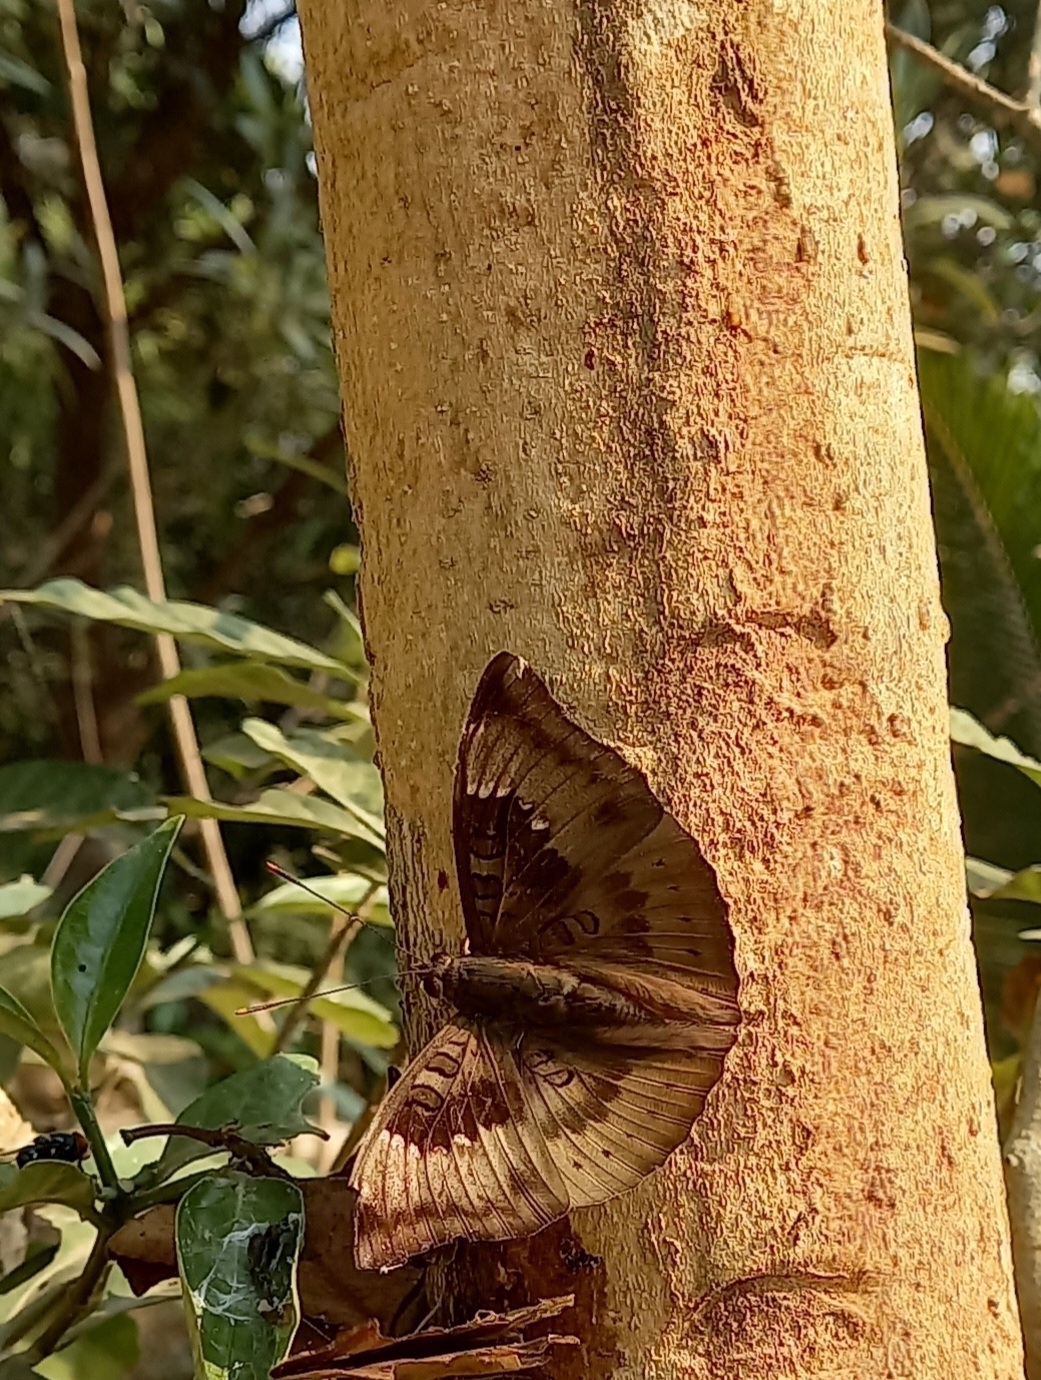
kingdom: Animalia
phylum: Arthropoda
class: Insecta
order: Lepidoptera
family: Nymphalidae
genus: Euthalia
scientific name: Euthalia aconthea
